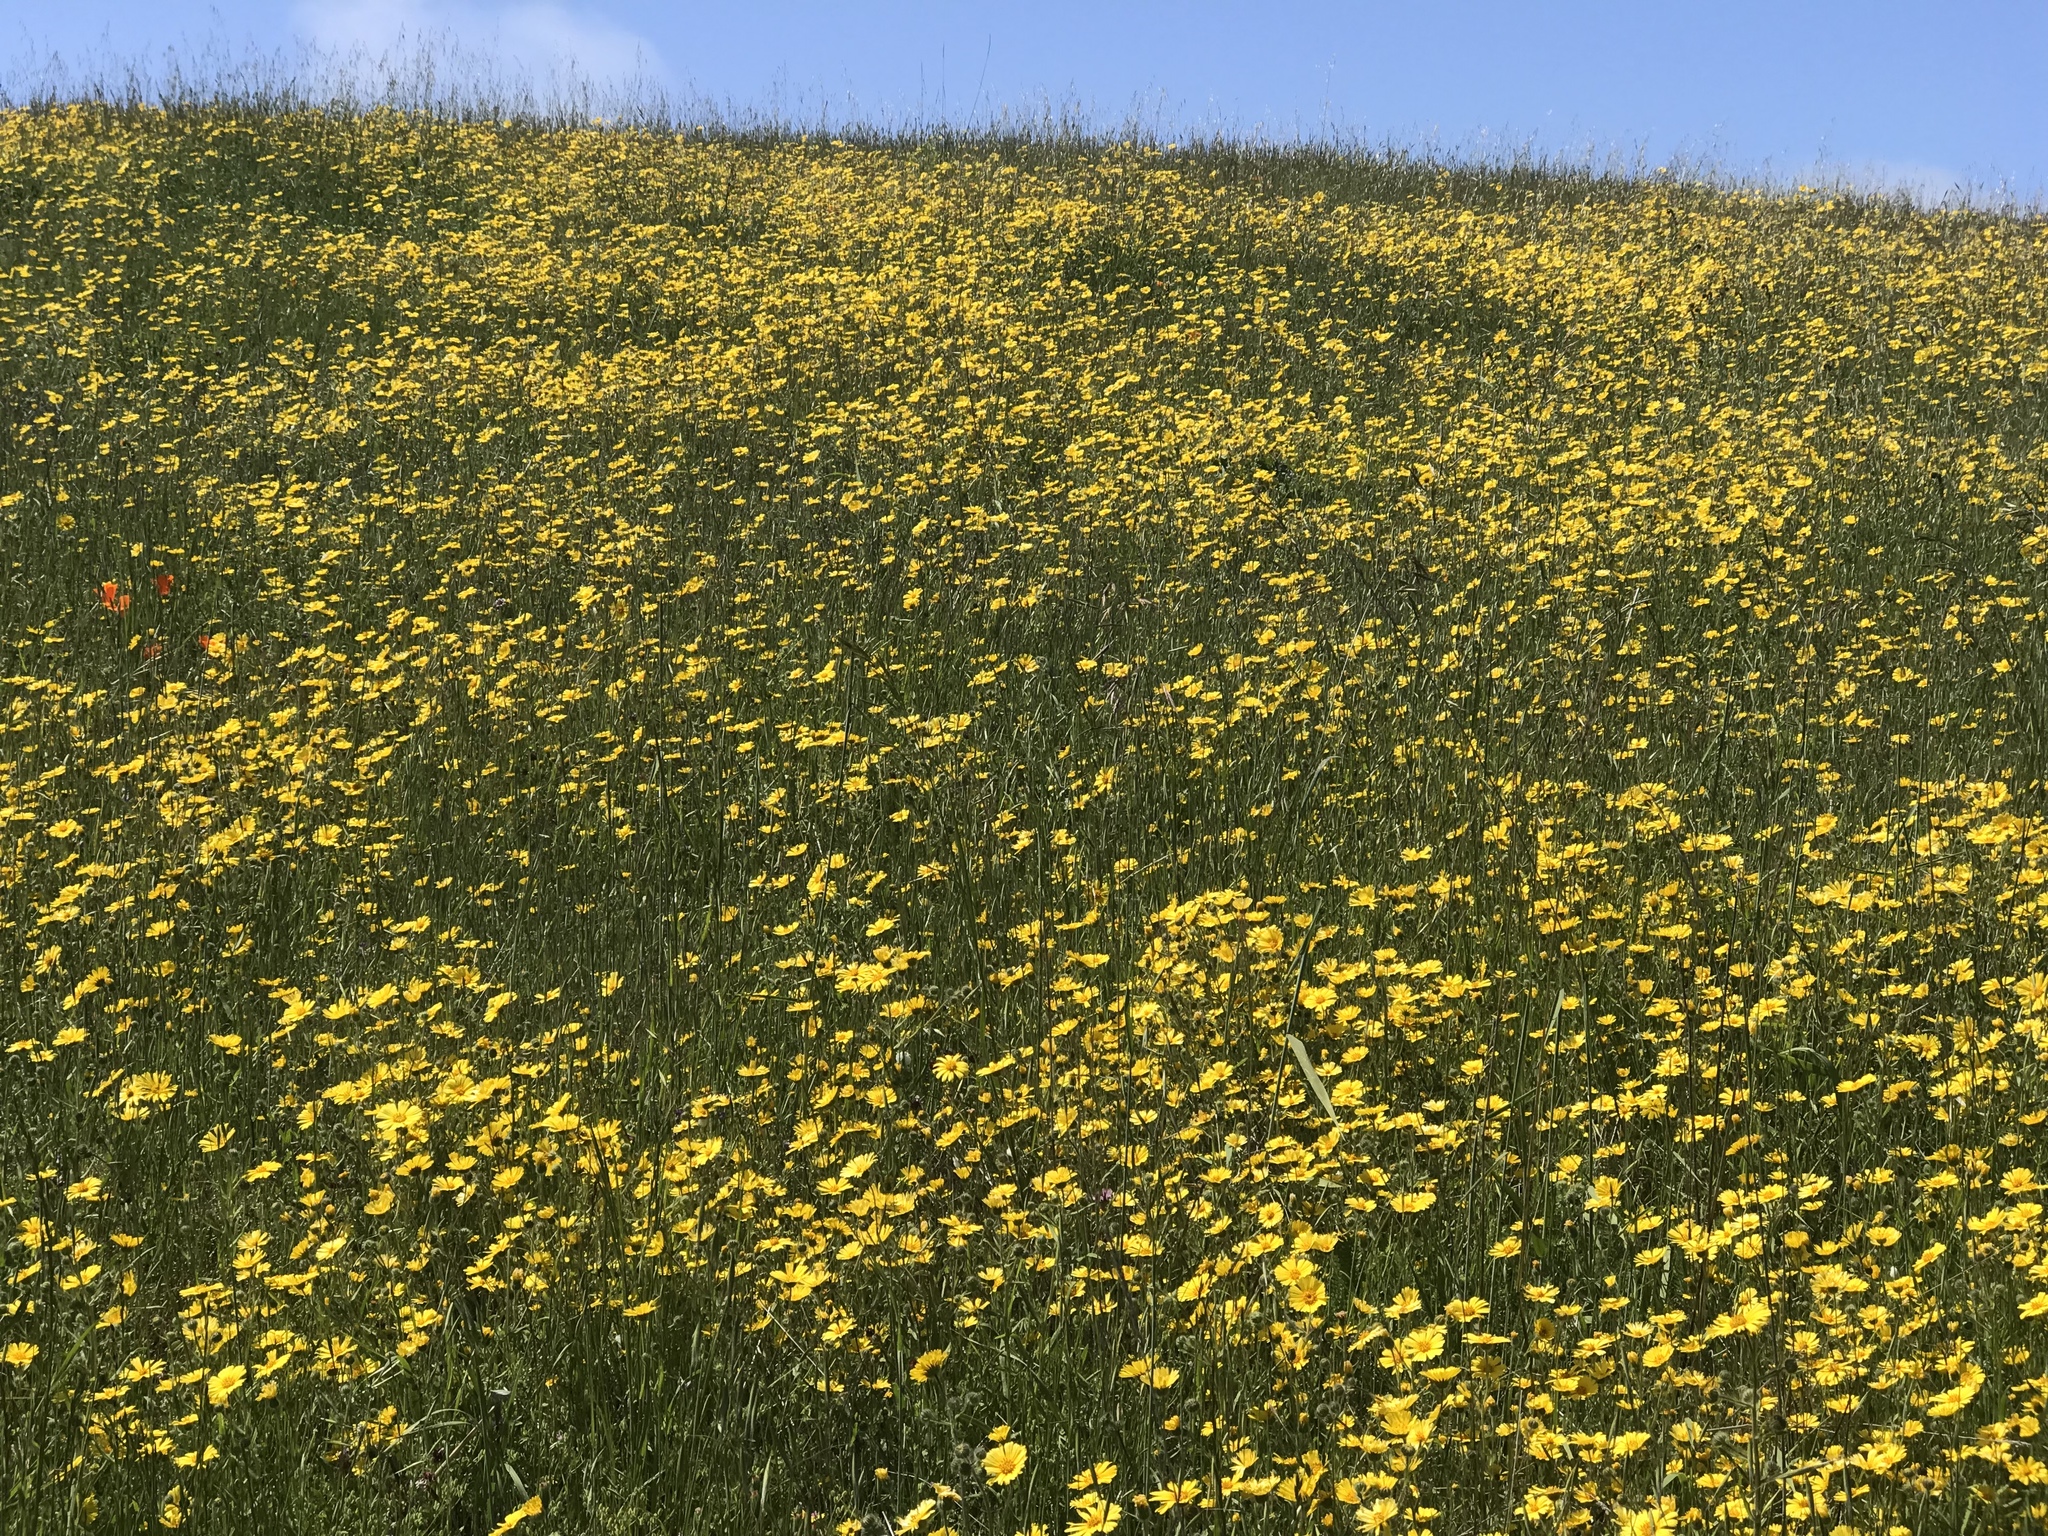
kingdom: Plantae
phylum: Tracheophyta
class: Magnoliopsida
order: Asterales
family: Asteraceae
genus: Madia
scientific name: Madia elegans
